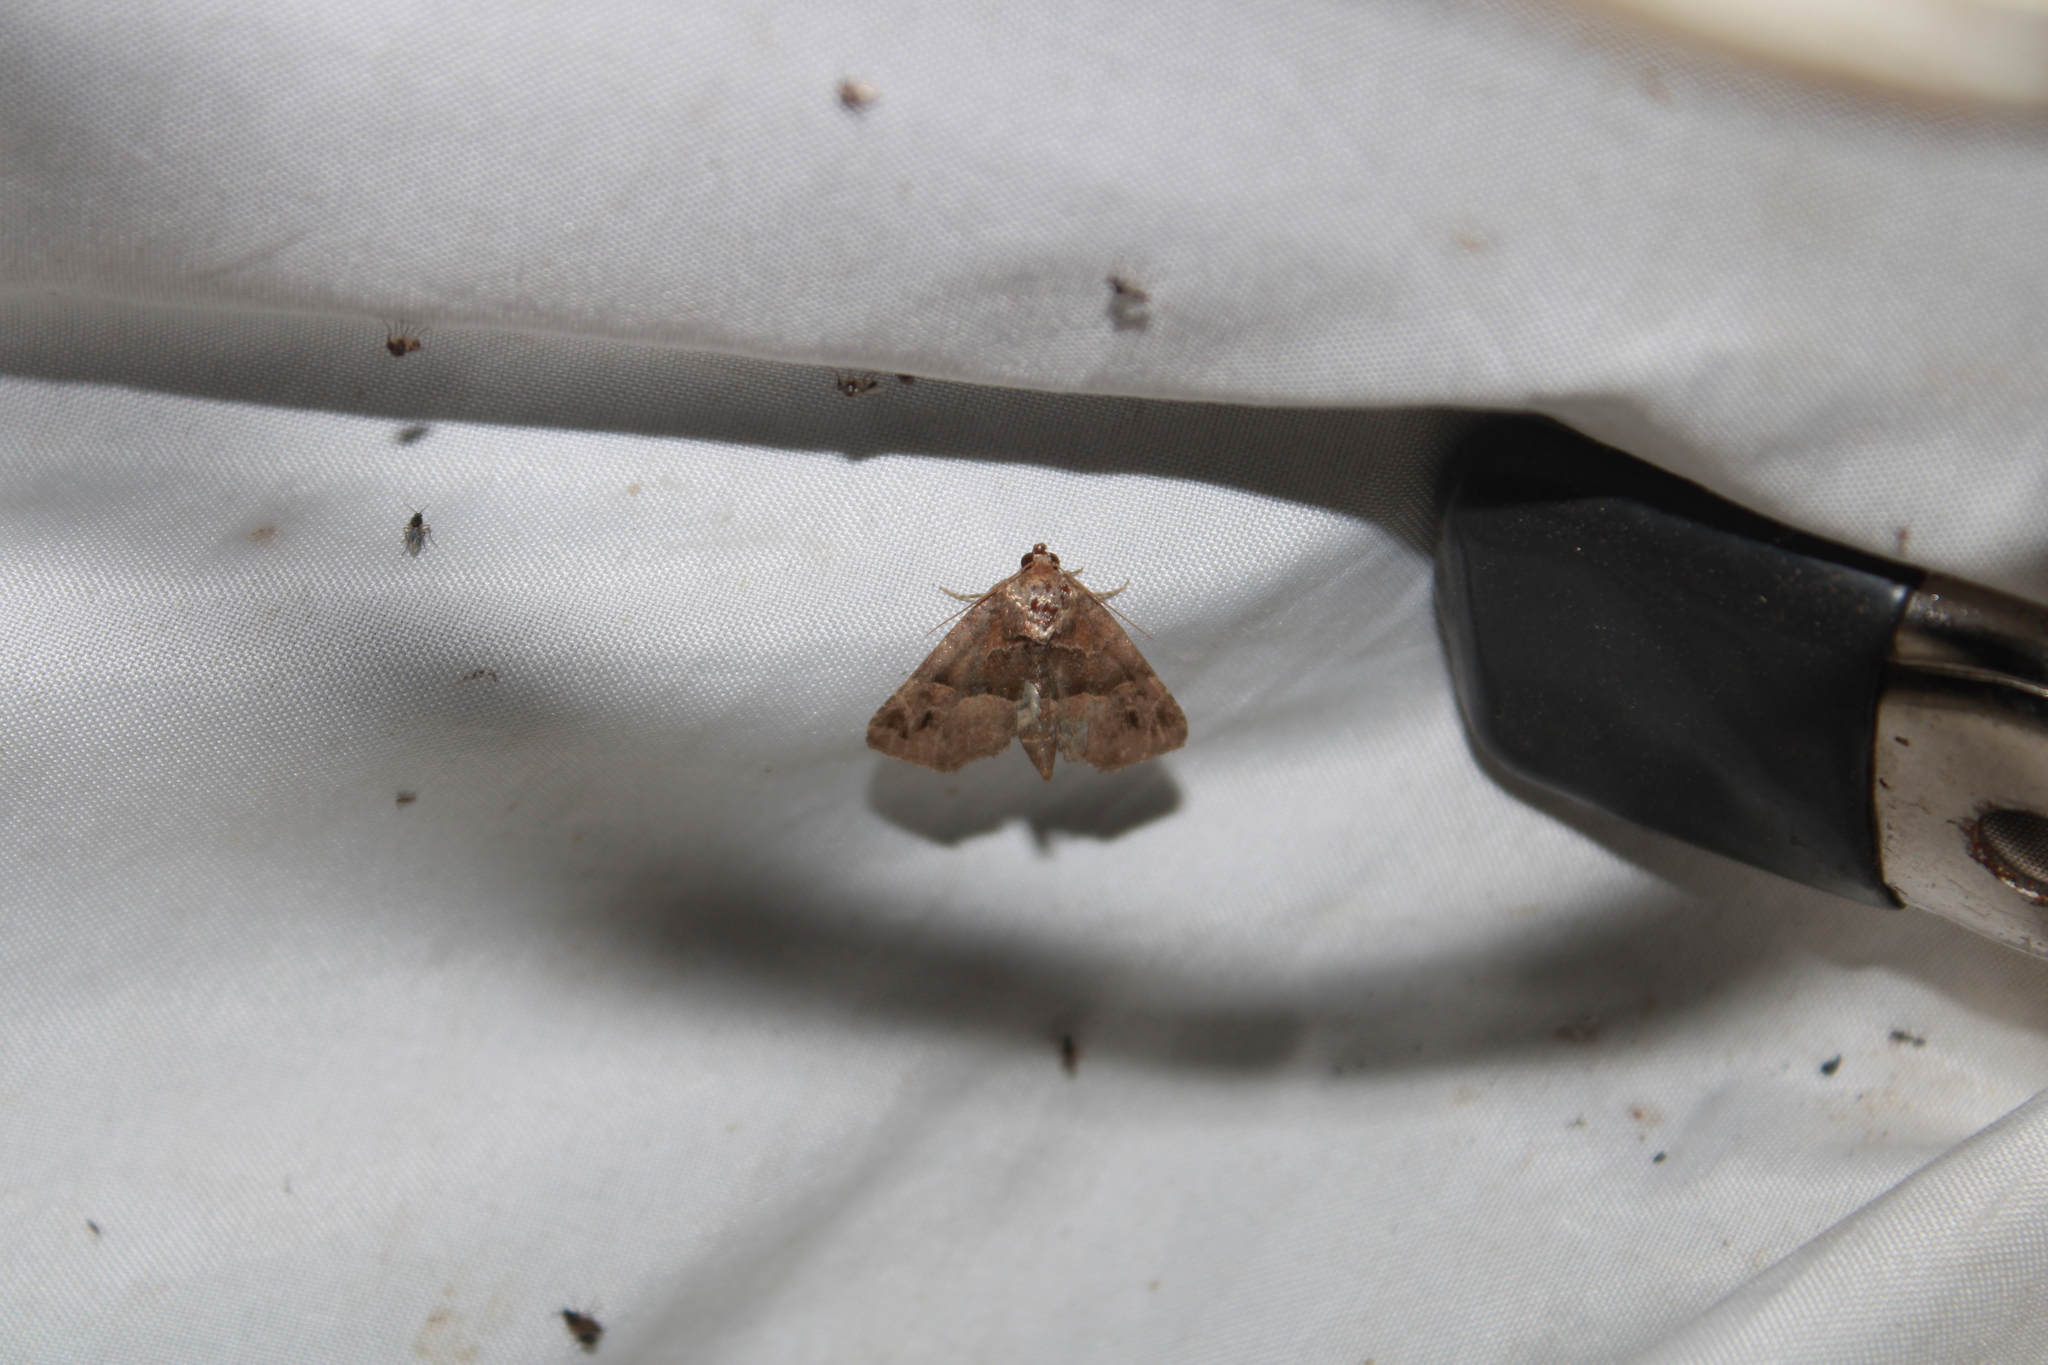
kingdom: Animalia
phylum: Arthropoda
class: Insecta
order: Lepidoptera
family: Noctuidae
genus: Niphonyx
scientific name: Niphonyx segregata
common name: Hops angleshade moth
